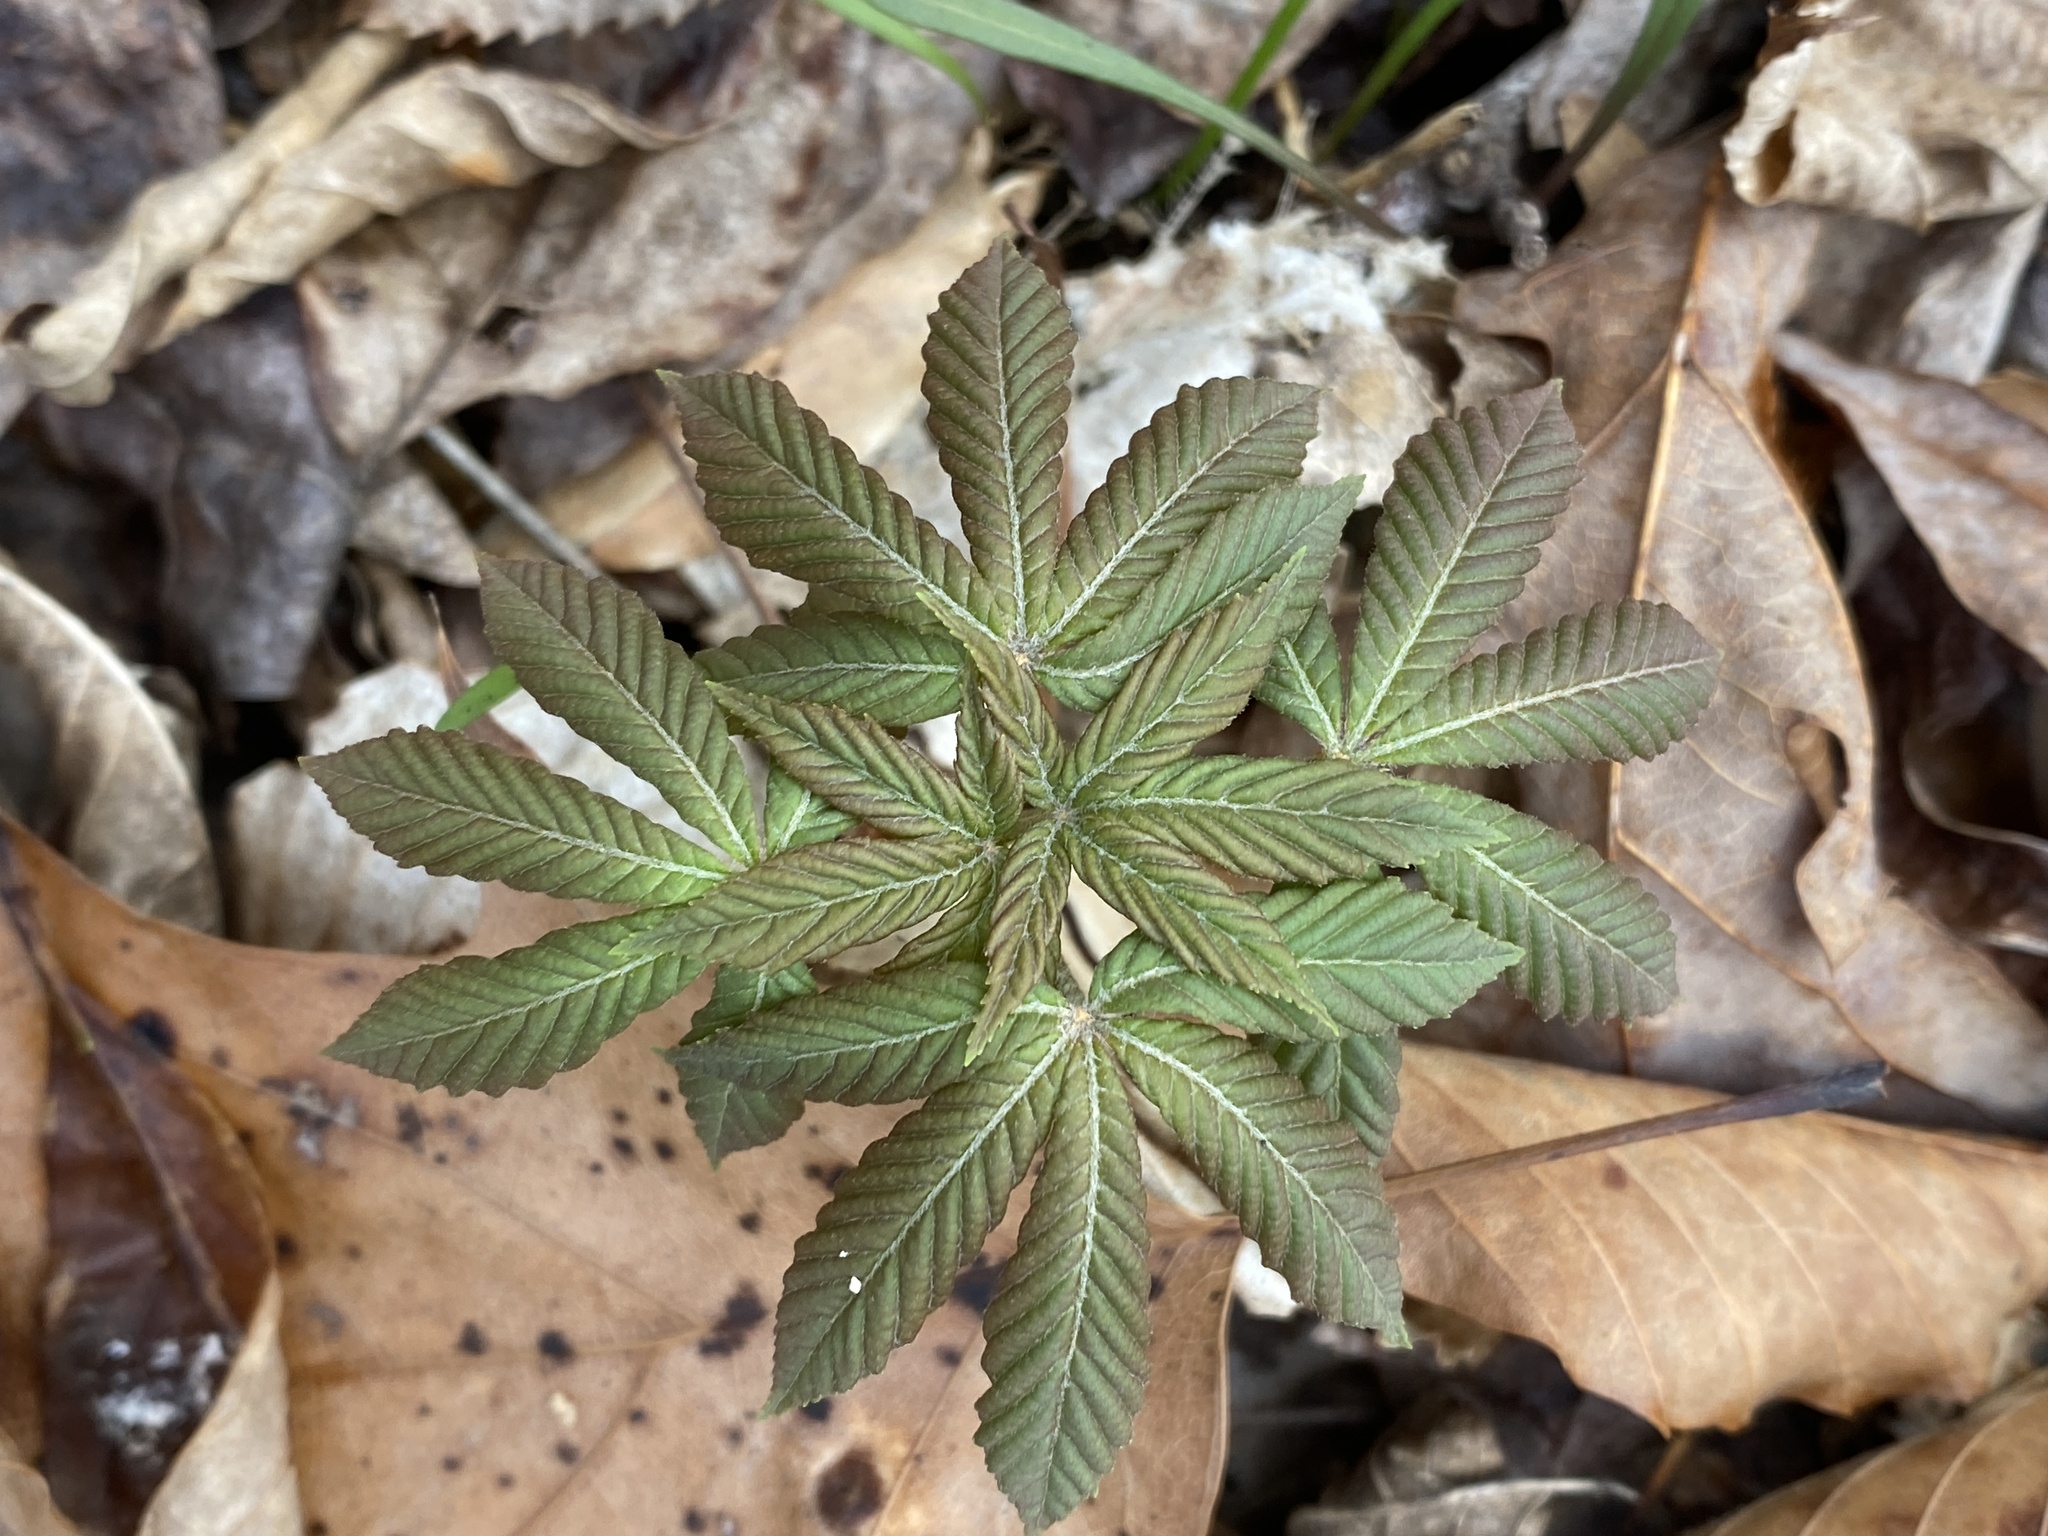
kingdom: Plantae
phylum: Tracheophyta
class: Magnoliopsida
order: Sapindales
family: Sapindaceae
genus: Aesculus
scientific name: Aesculus sylvatica
